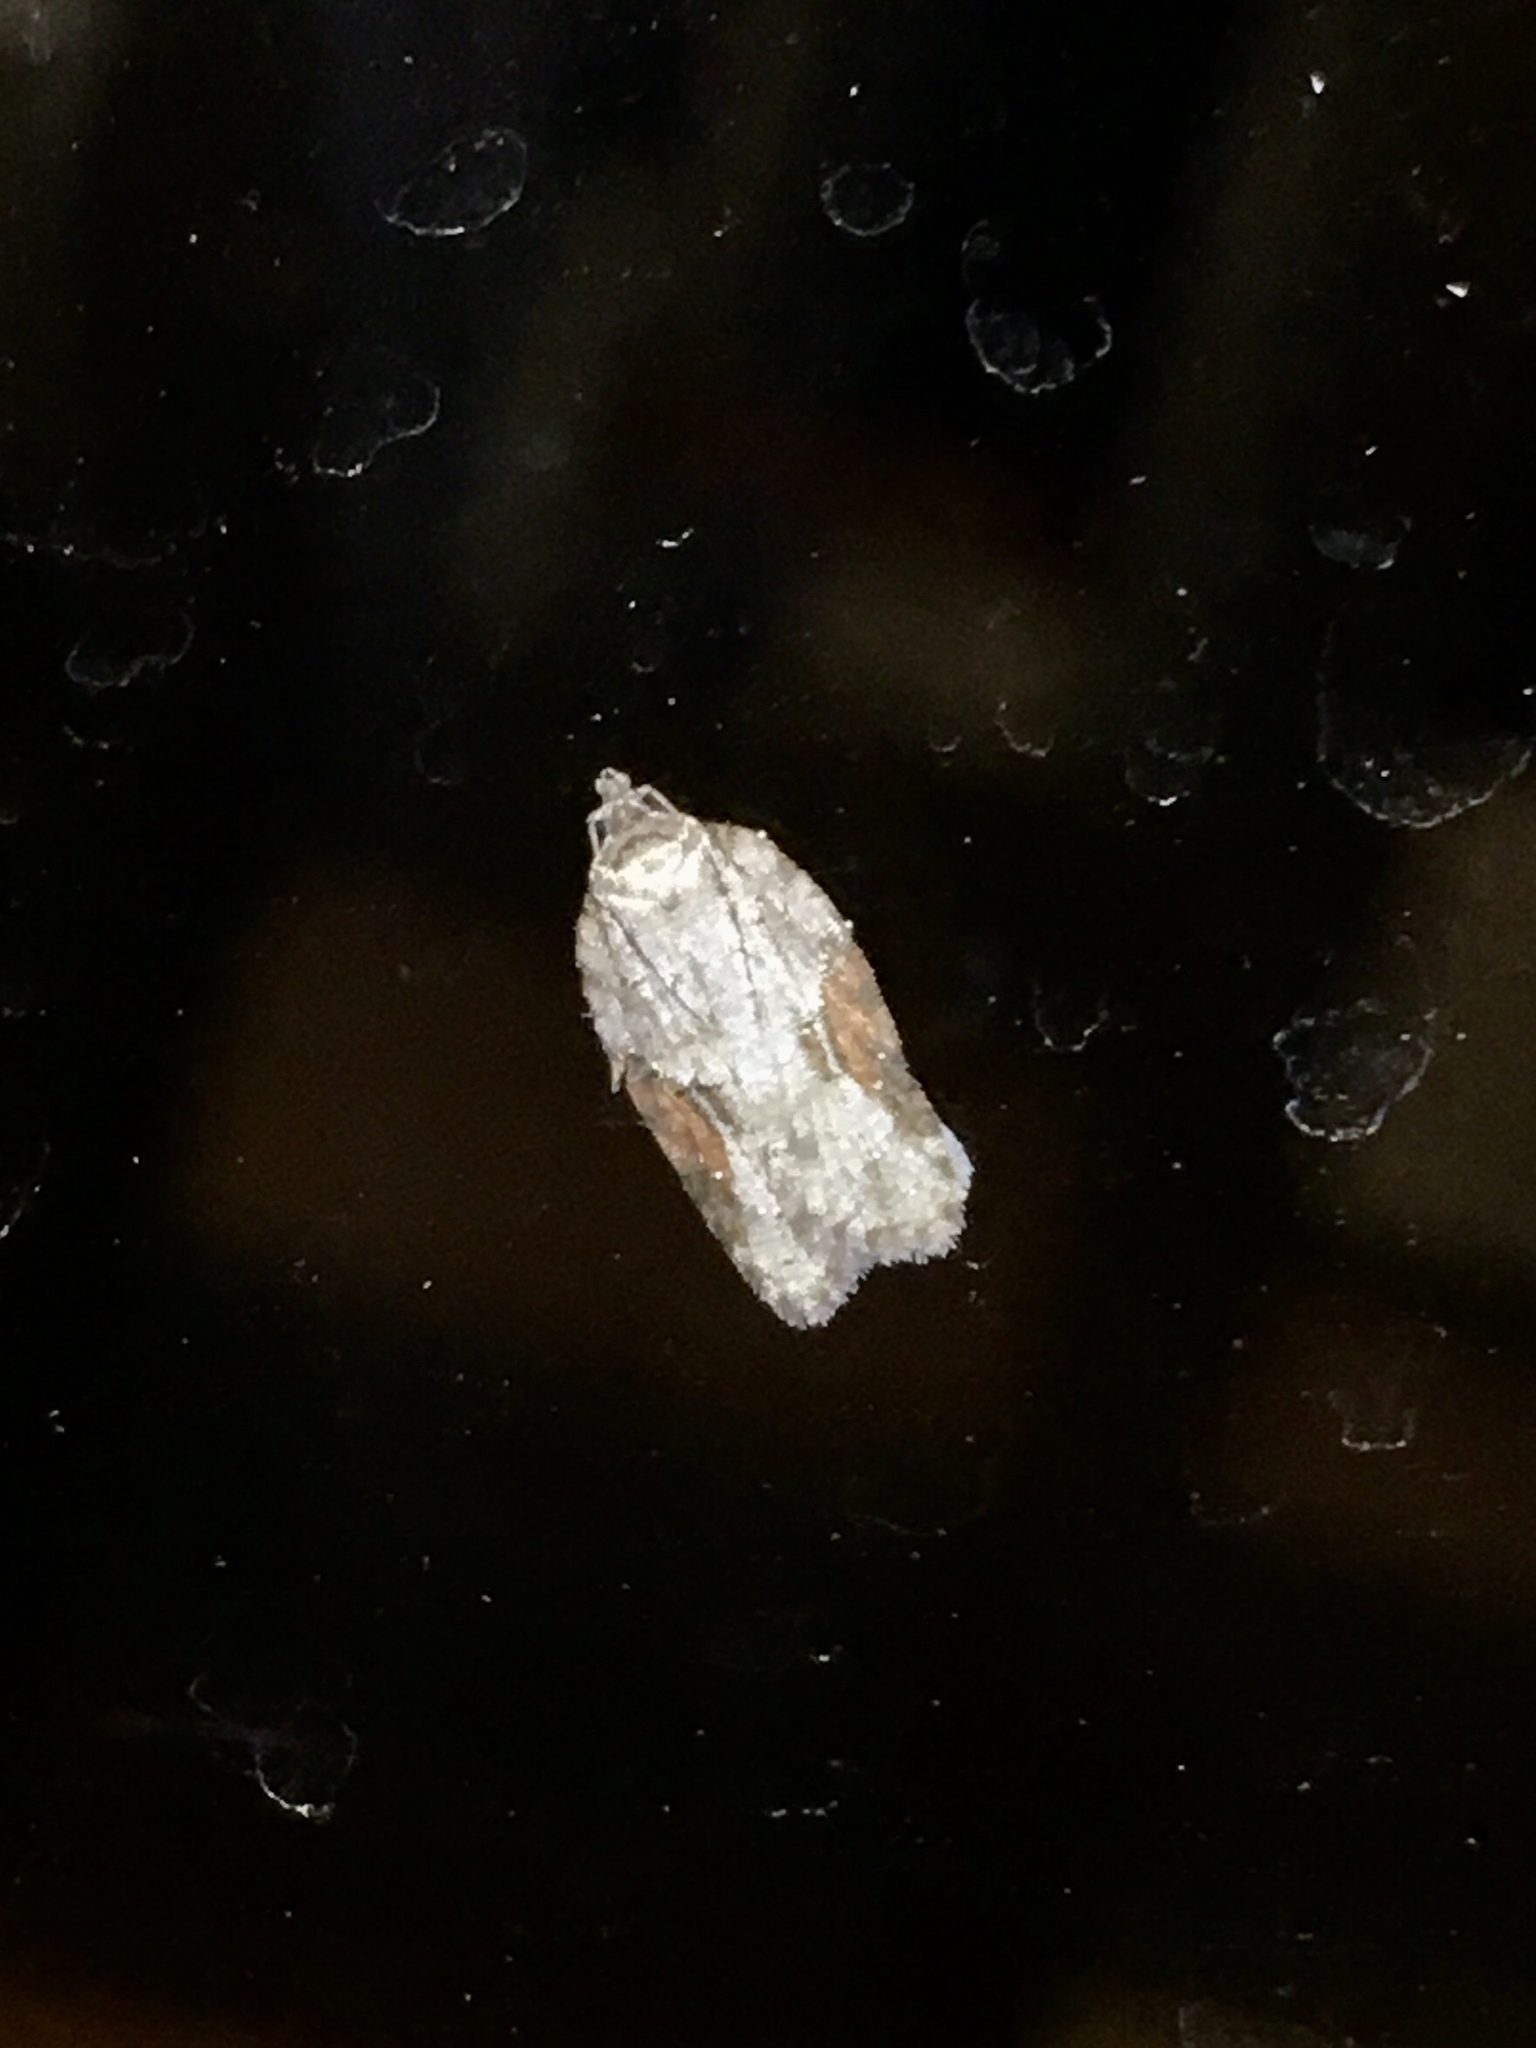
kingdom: Animalia
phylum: Arthropoda
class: Insecta
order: Lepidoptera
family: Tortricidae
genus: Acleris
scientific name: Acleris ptychogrammos
